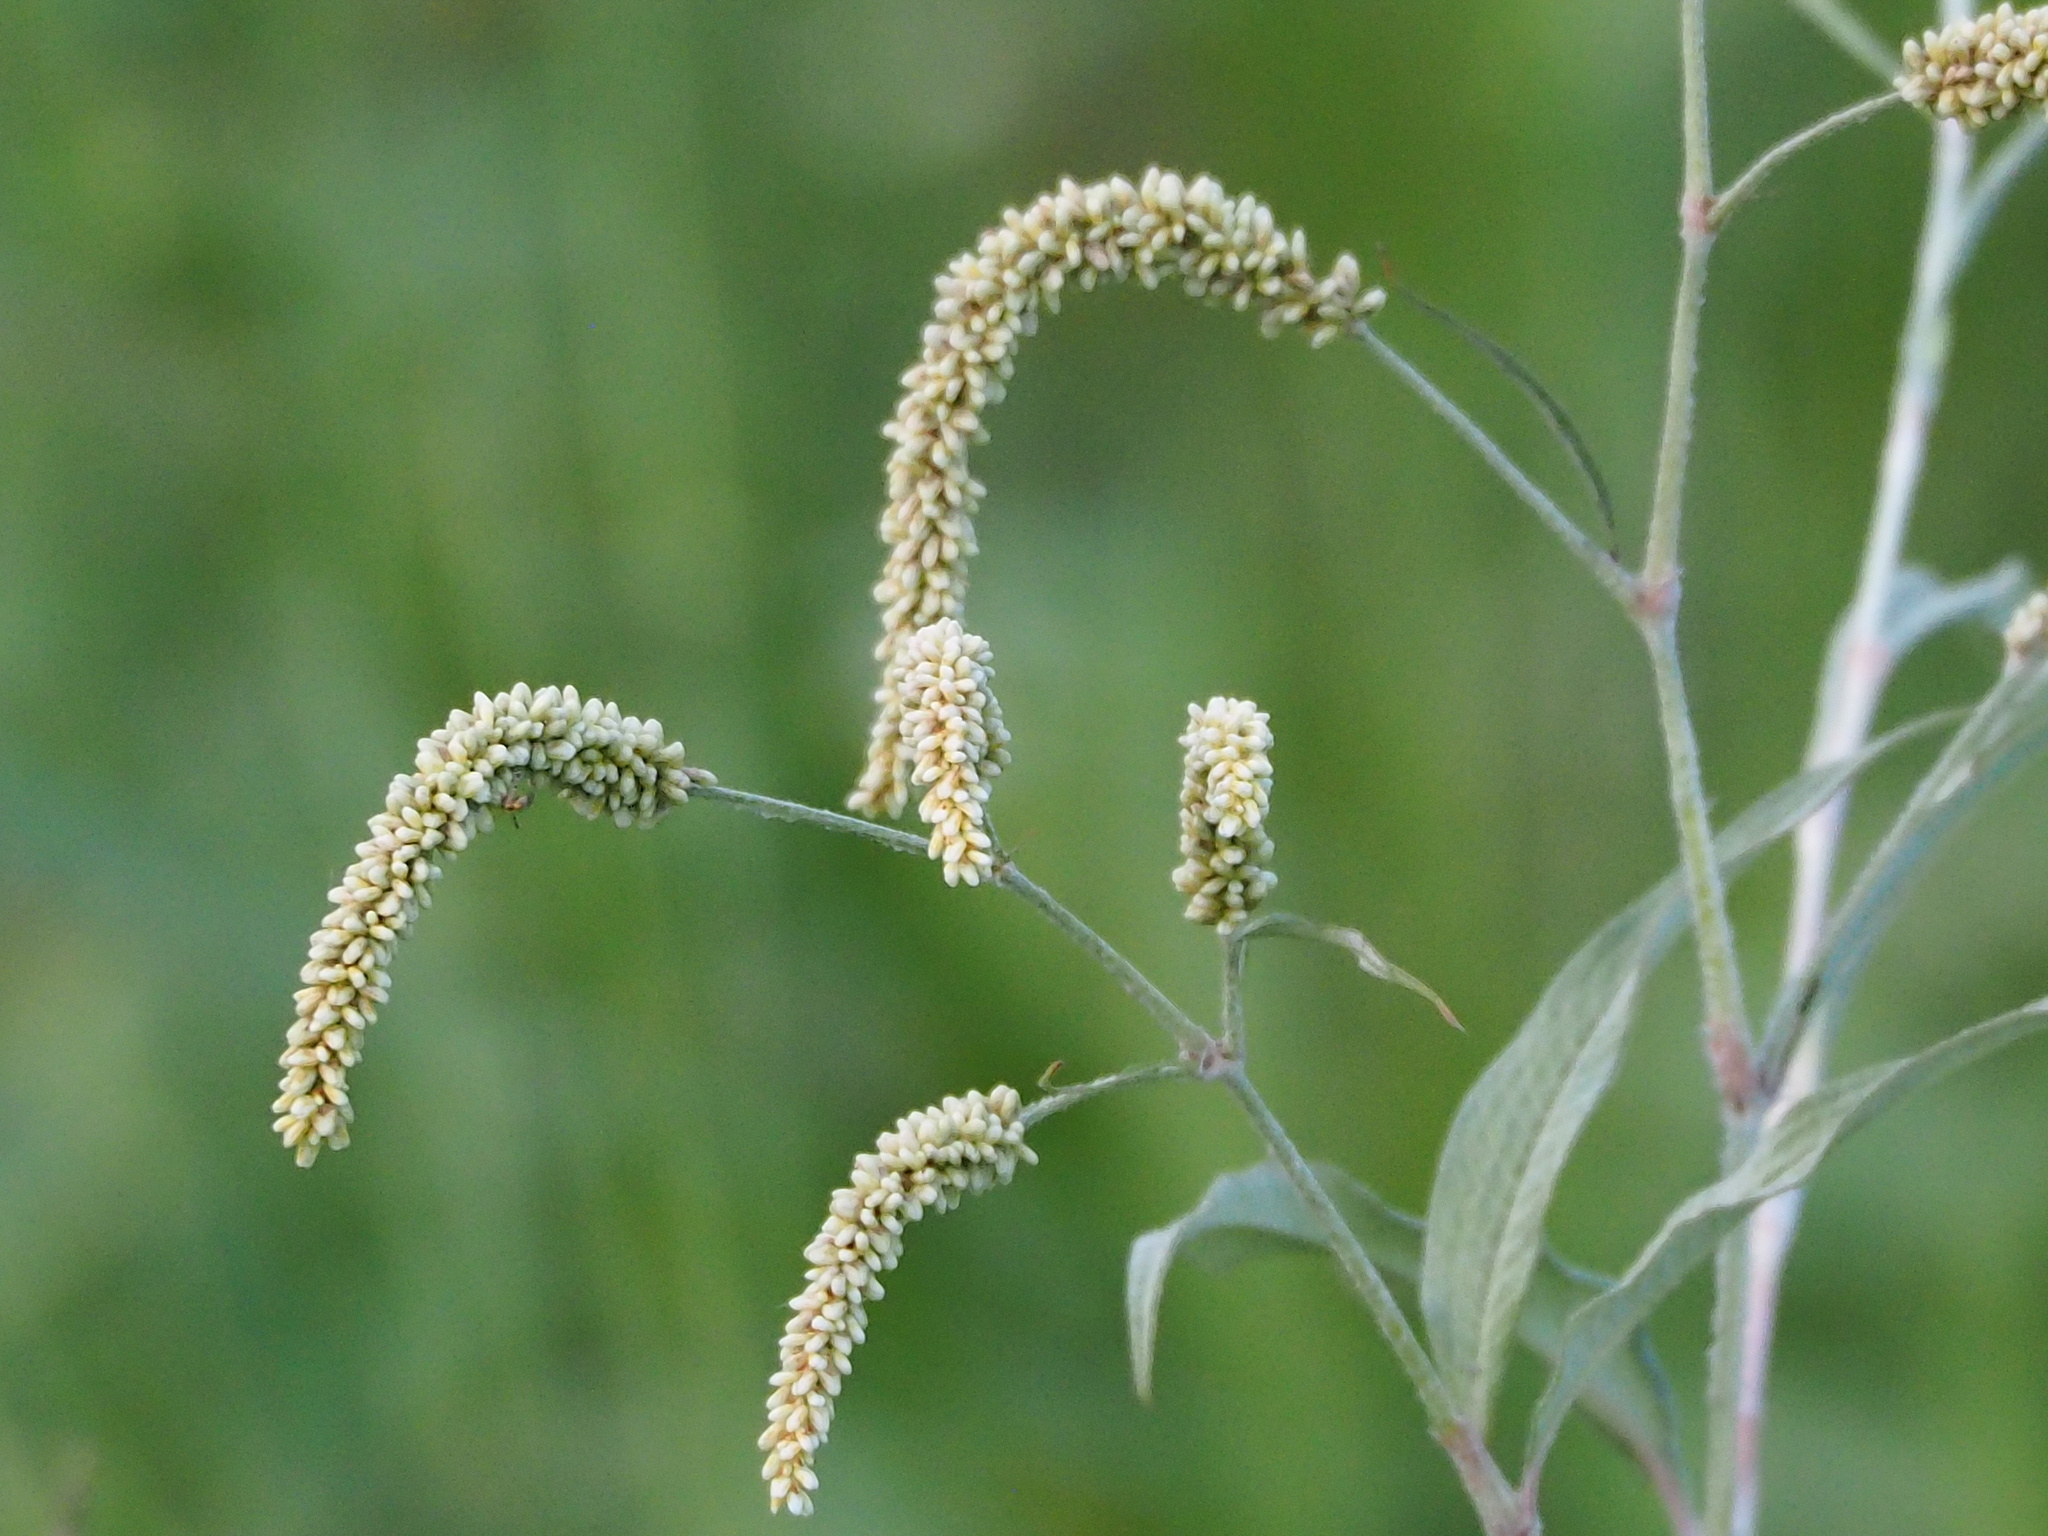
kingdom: Plantae
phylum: Tracheophyta
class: Magnoliopsida
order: Caryophyllales
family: Polygonaceae
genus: Persicaria
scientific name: Persicaria lanata
